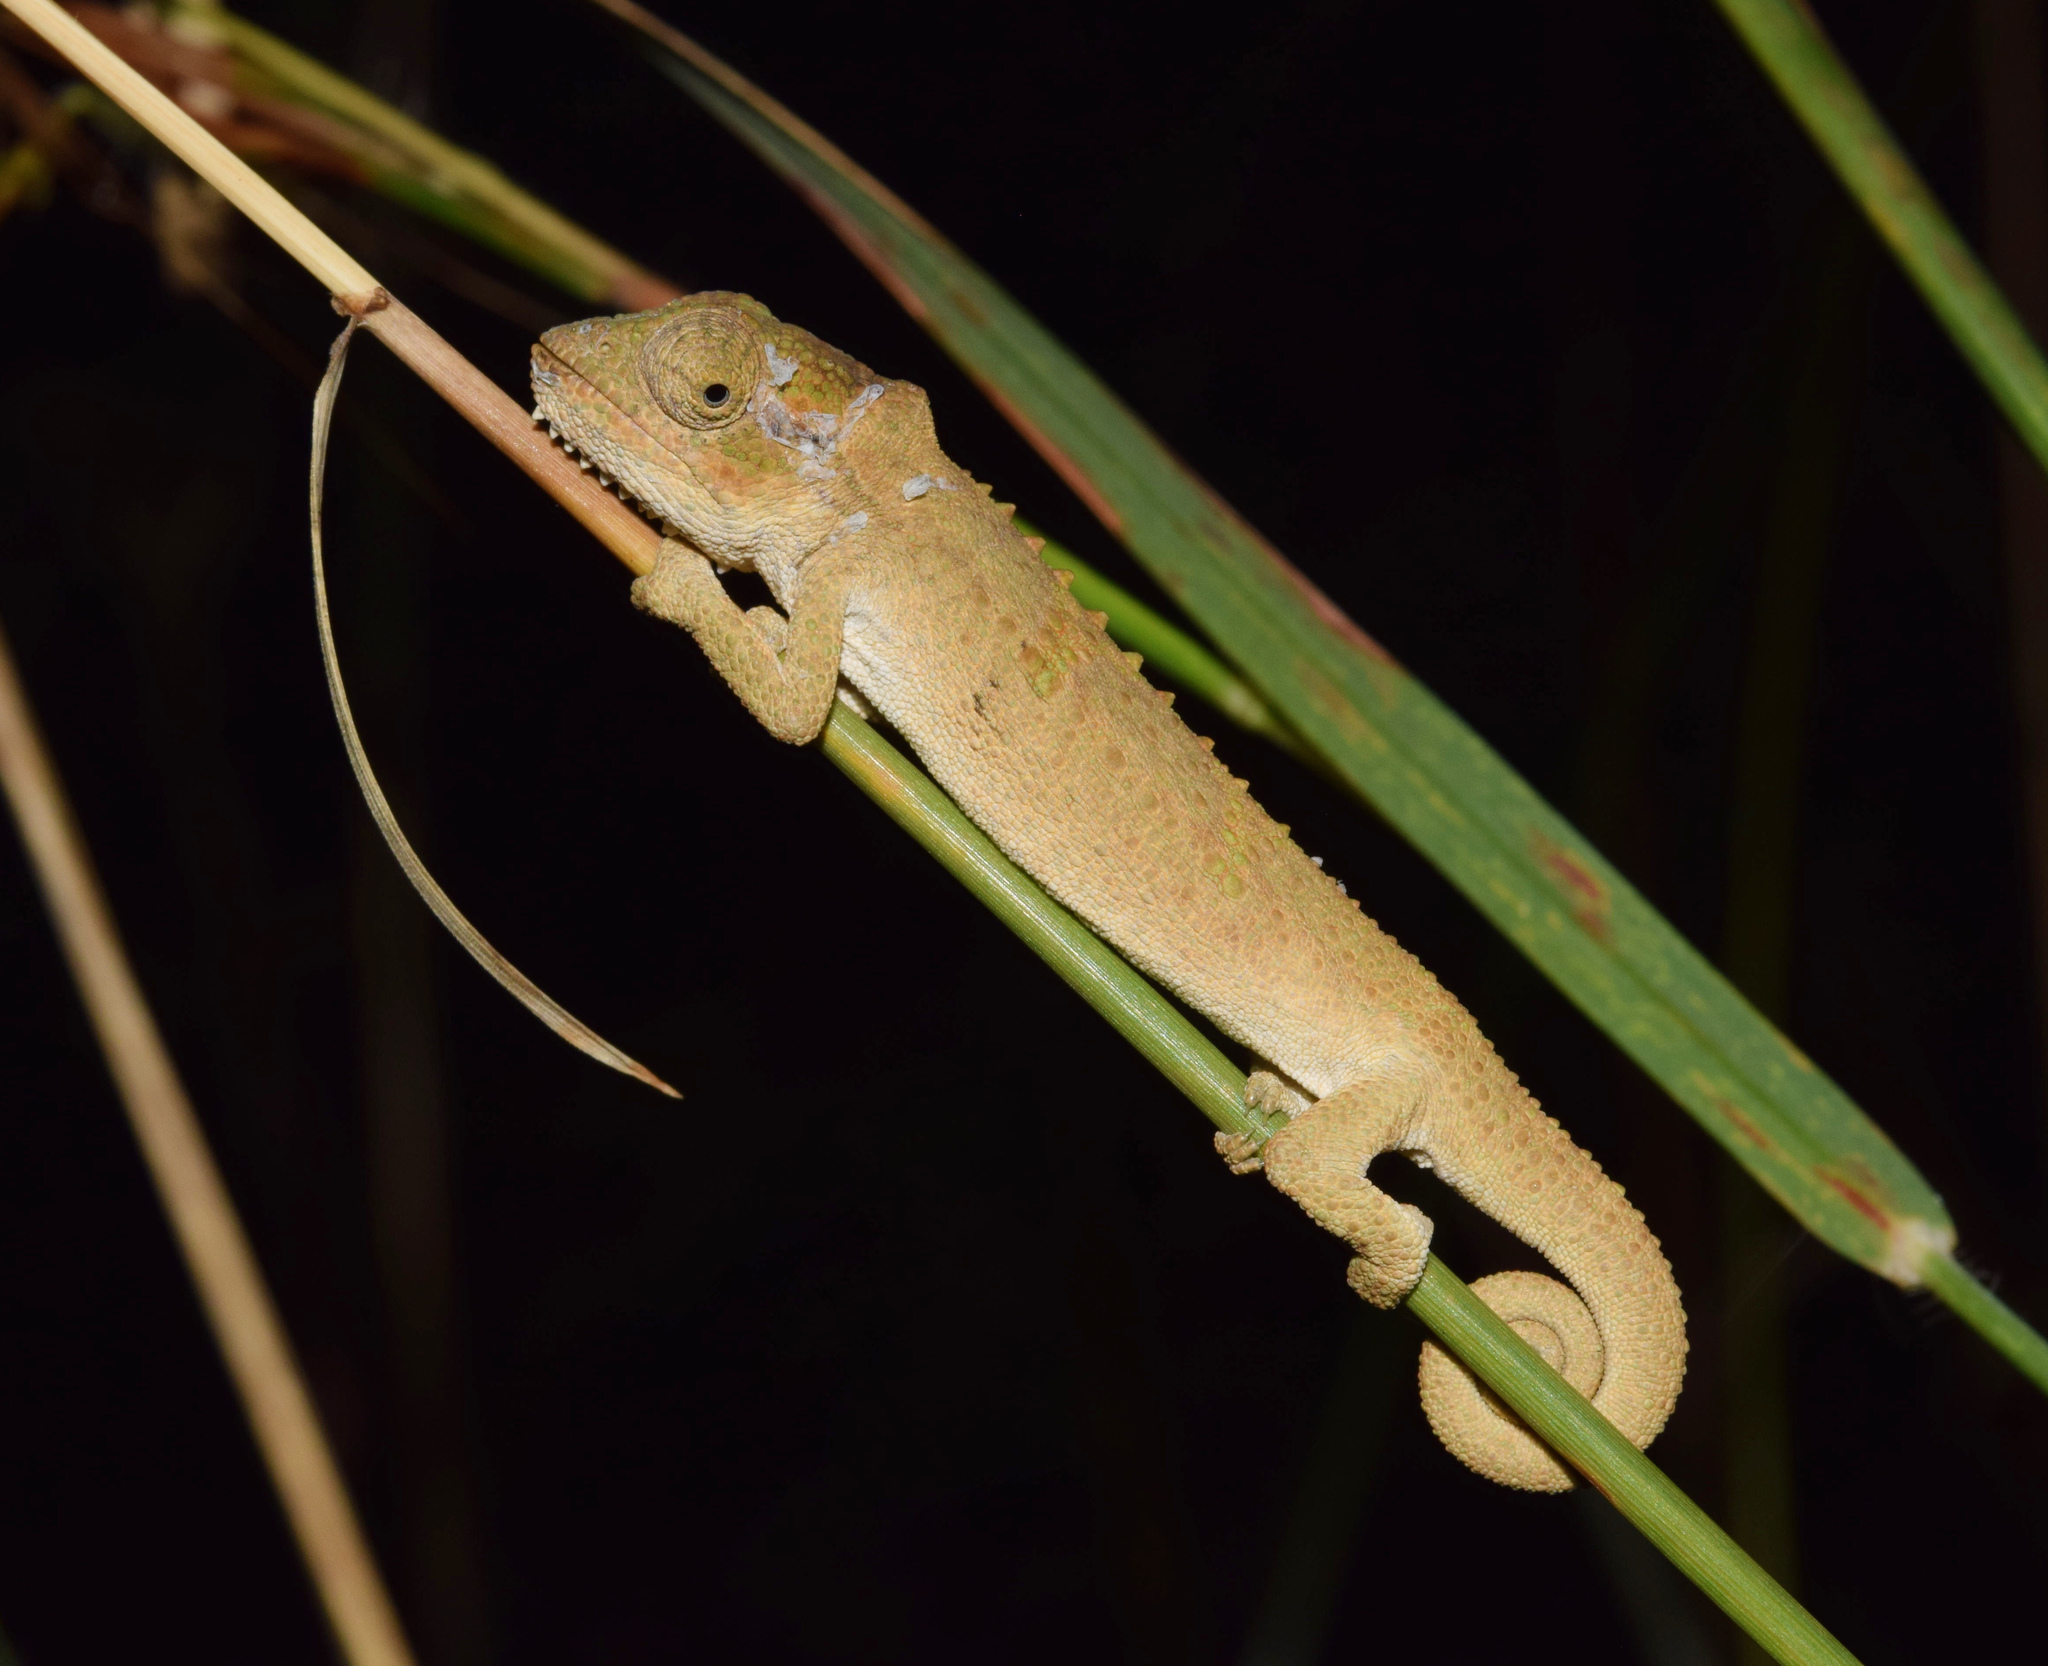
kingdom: Animalia
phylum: Chordata
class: Squamata
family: Chamaeleonidae
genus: Bradypodion
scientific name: Bradypodion melanocephalum
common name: Black-headed dwarf chameleon
